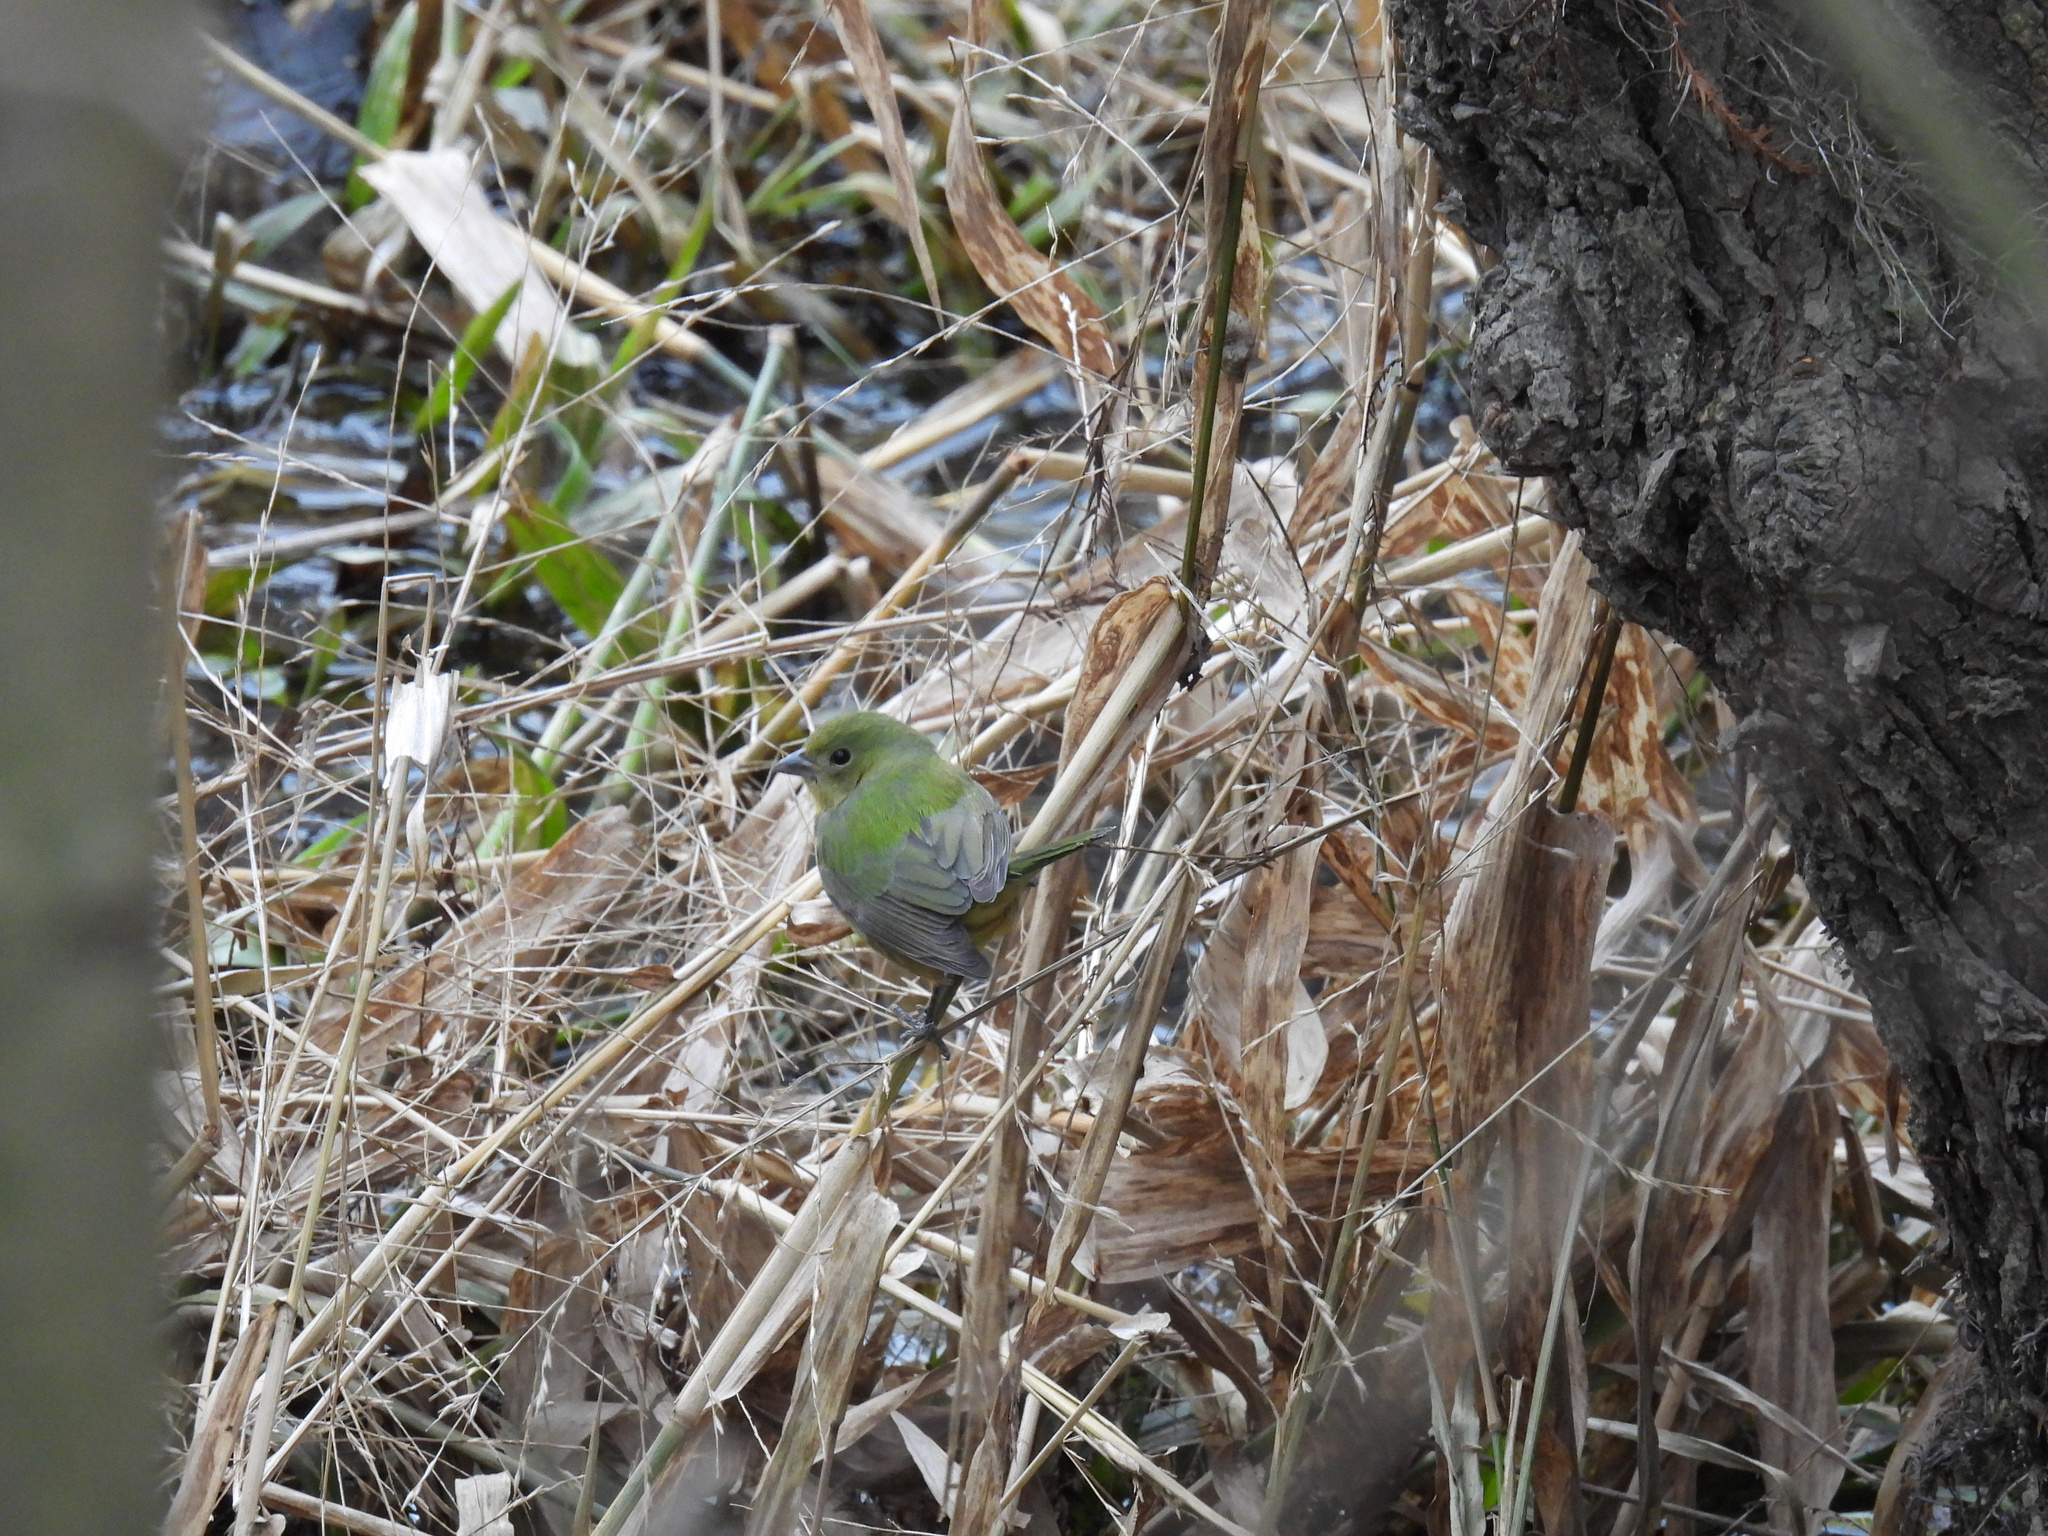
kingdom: Animalia
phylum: Chordata
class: Aves
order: Passeriformes
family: Cardinalidae
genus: Passerina
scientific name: Passerina ciris
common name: Painted bunting
